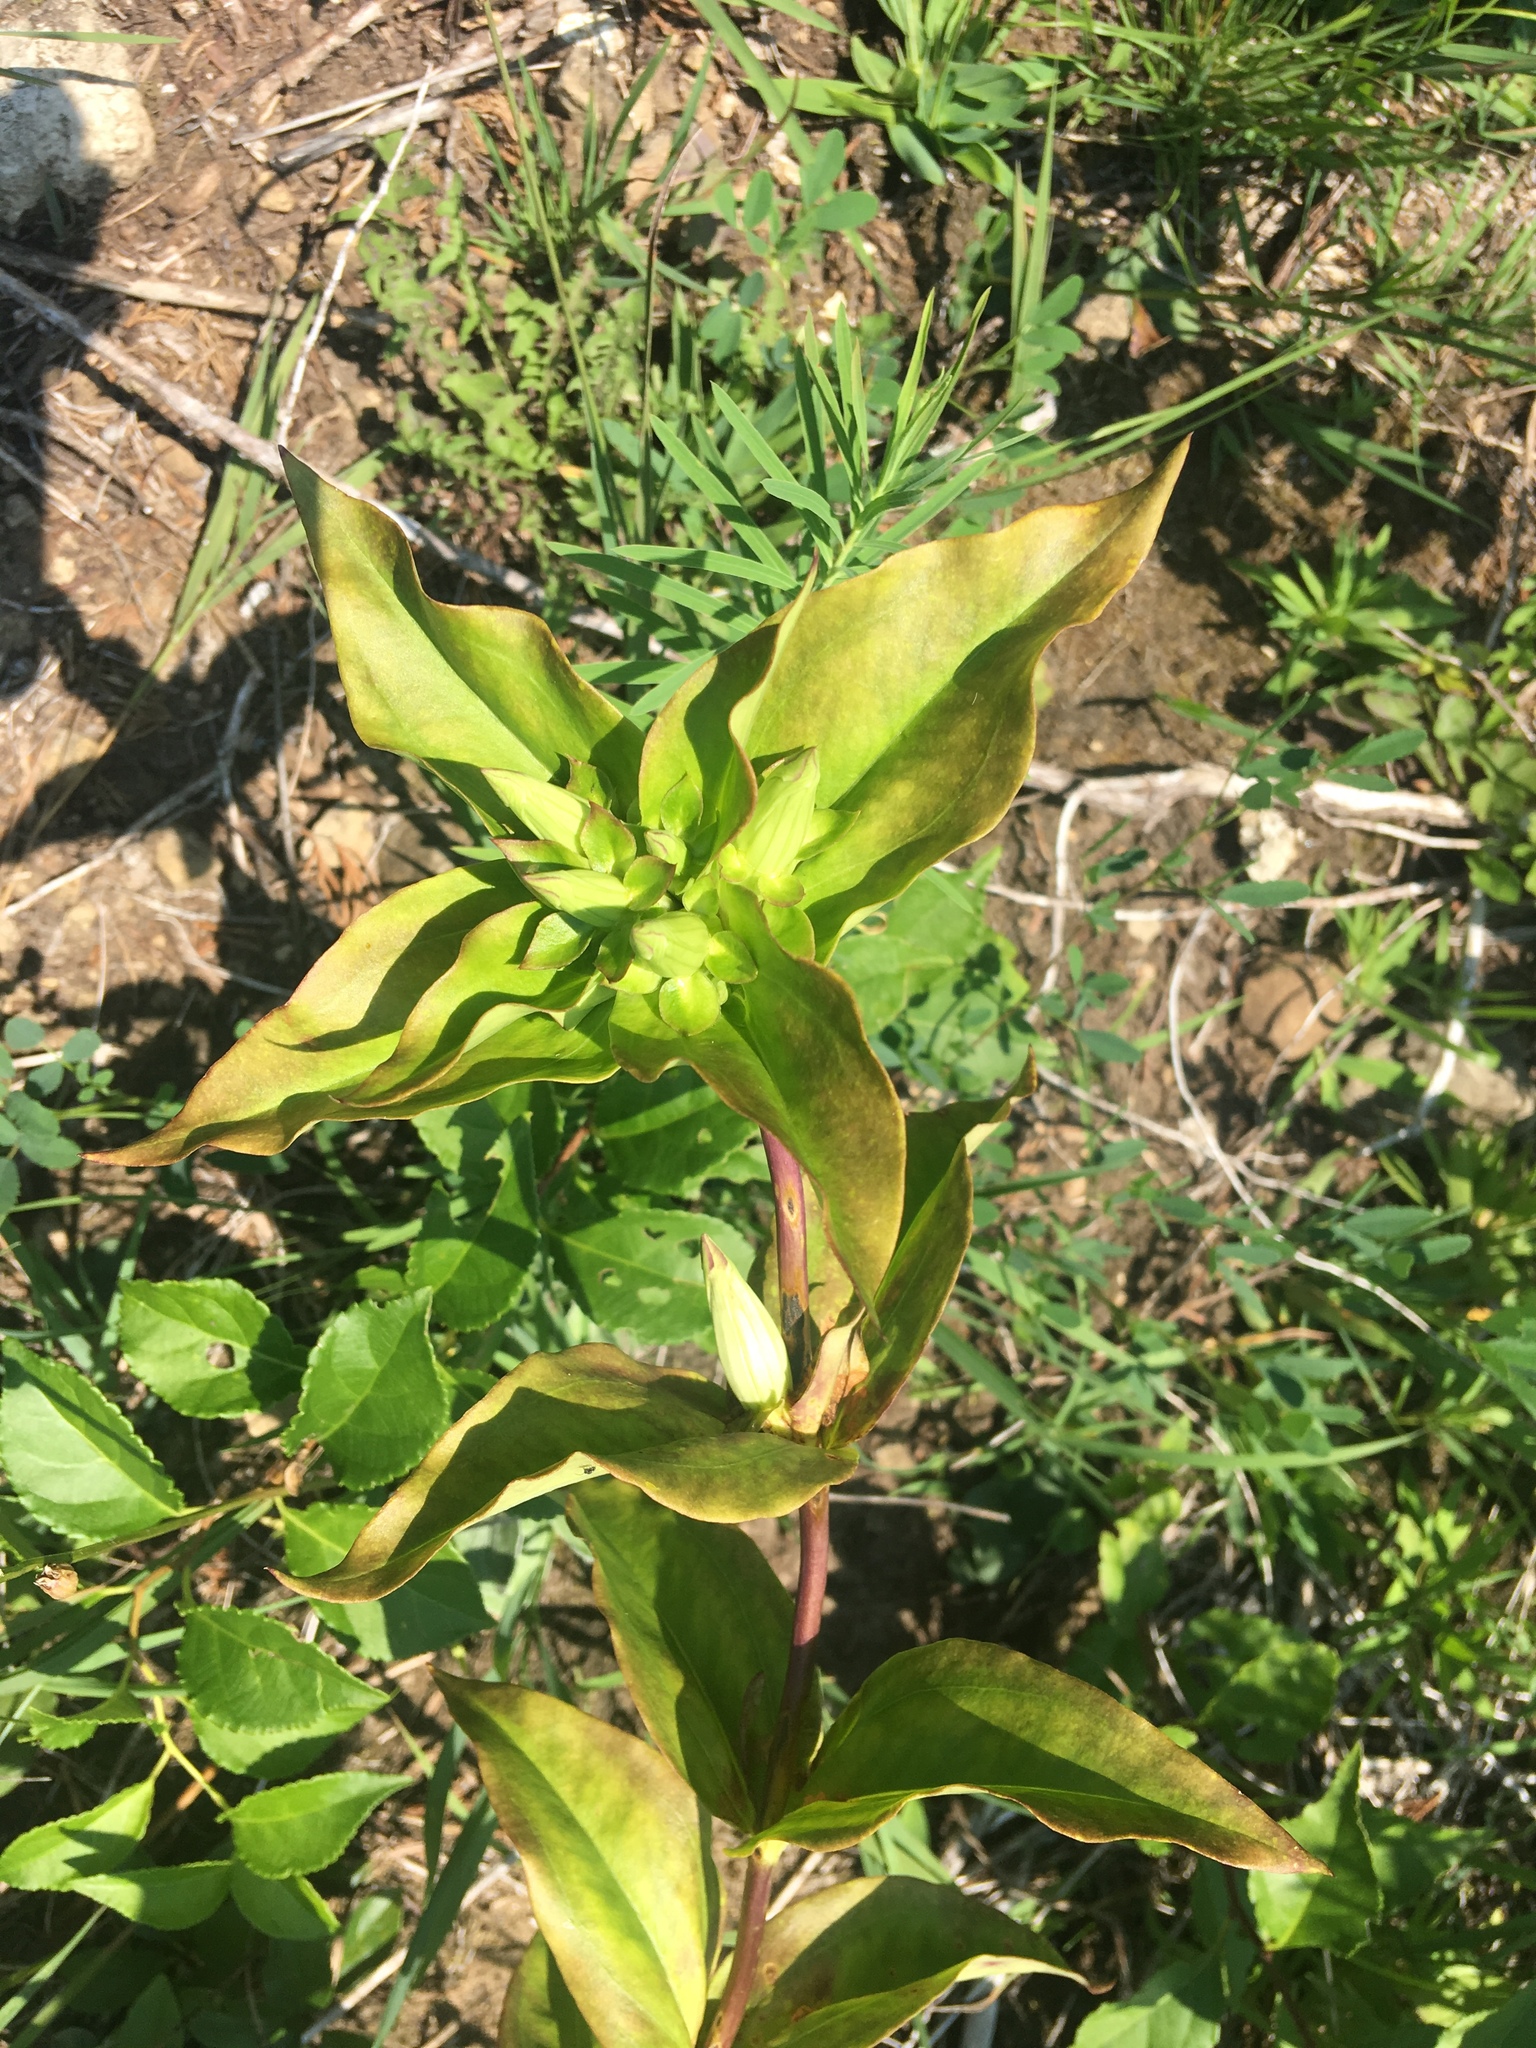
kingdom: Plantae
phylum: Tracheophyta
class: Magnoliopsida
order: Gentianales
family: Gentianaceae
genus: Gentiana
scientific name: Gentiana alba
